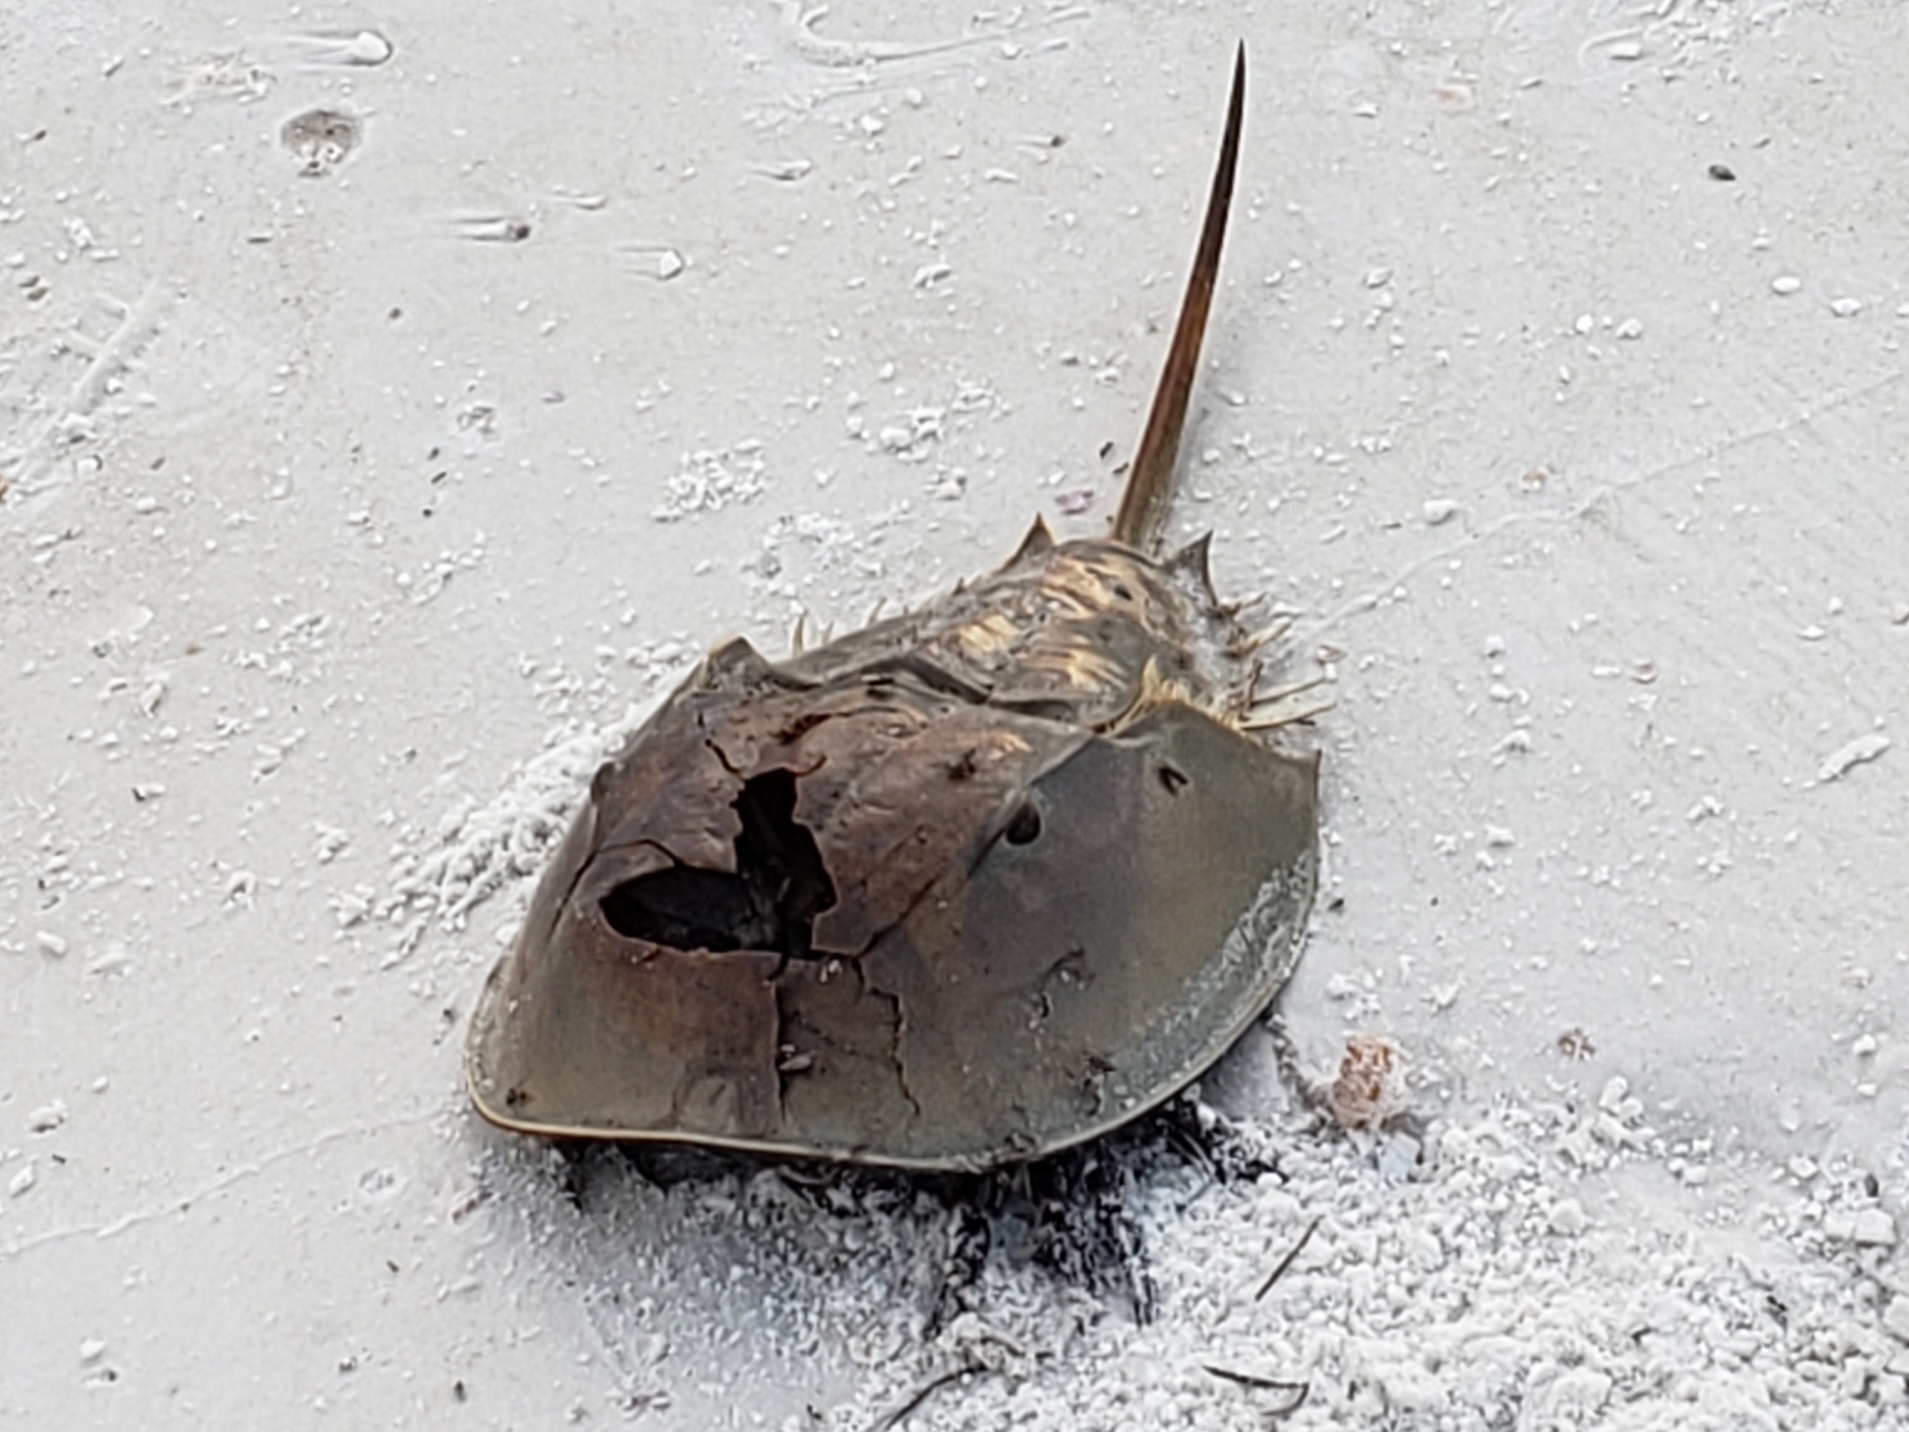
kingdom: Animalia
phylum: Arthropoda
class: Merostomata
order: Xiphosurida
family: Limulidae
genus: Limulus
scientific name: Limulus polyphemus
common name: Horseshoe crab
